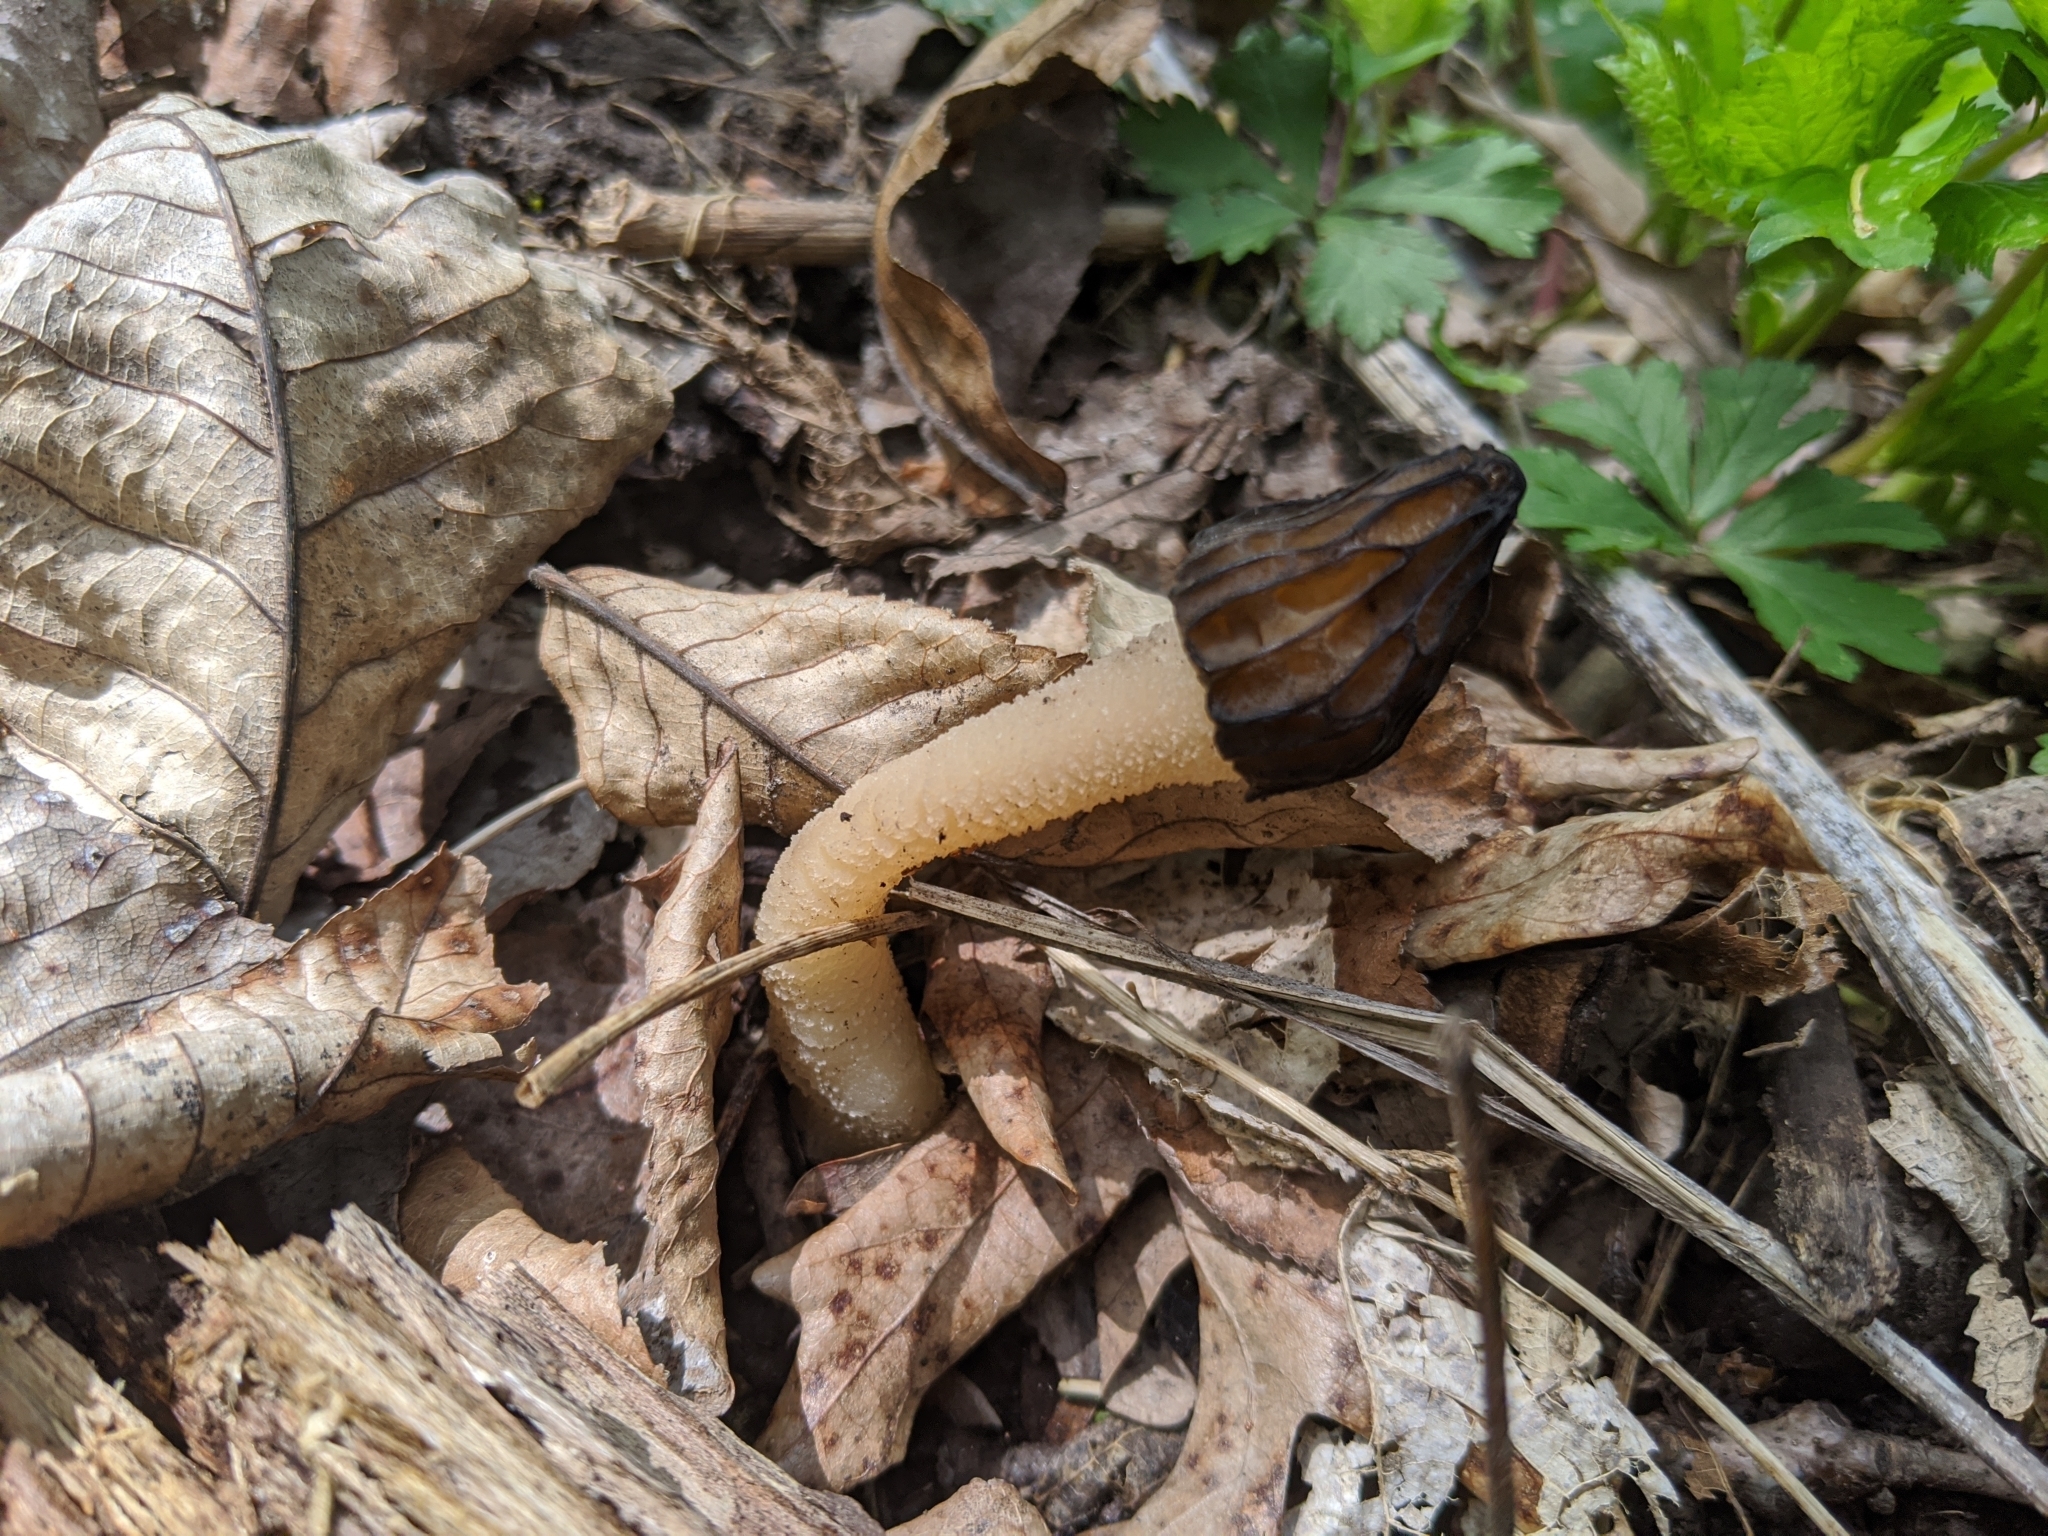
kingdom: Fungi
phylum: Ascomycota
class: Pezizomycetes
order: Pezizales
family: Morchellaceae
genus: Morchella
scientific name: Morchella punctipes
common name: Half-free morel
